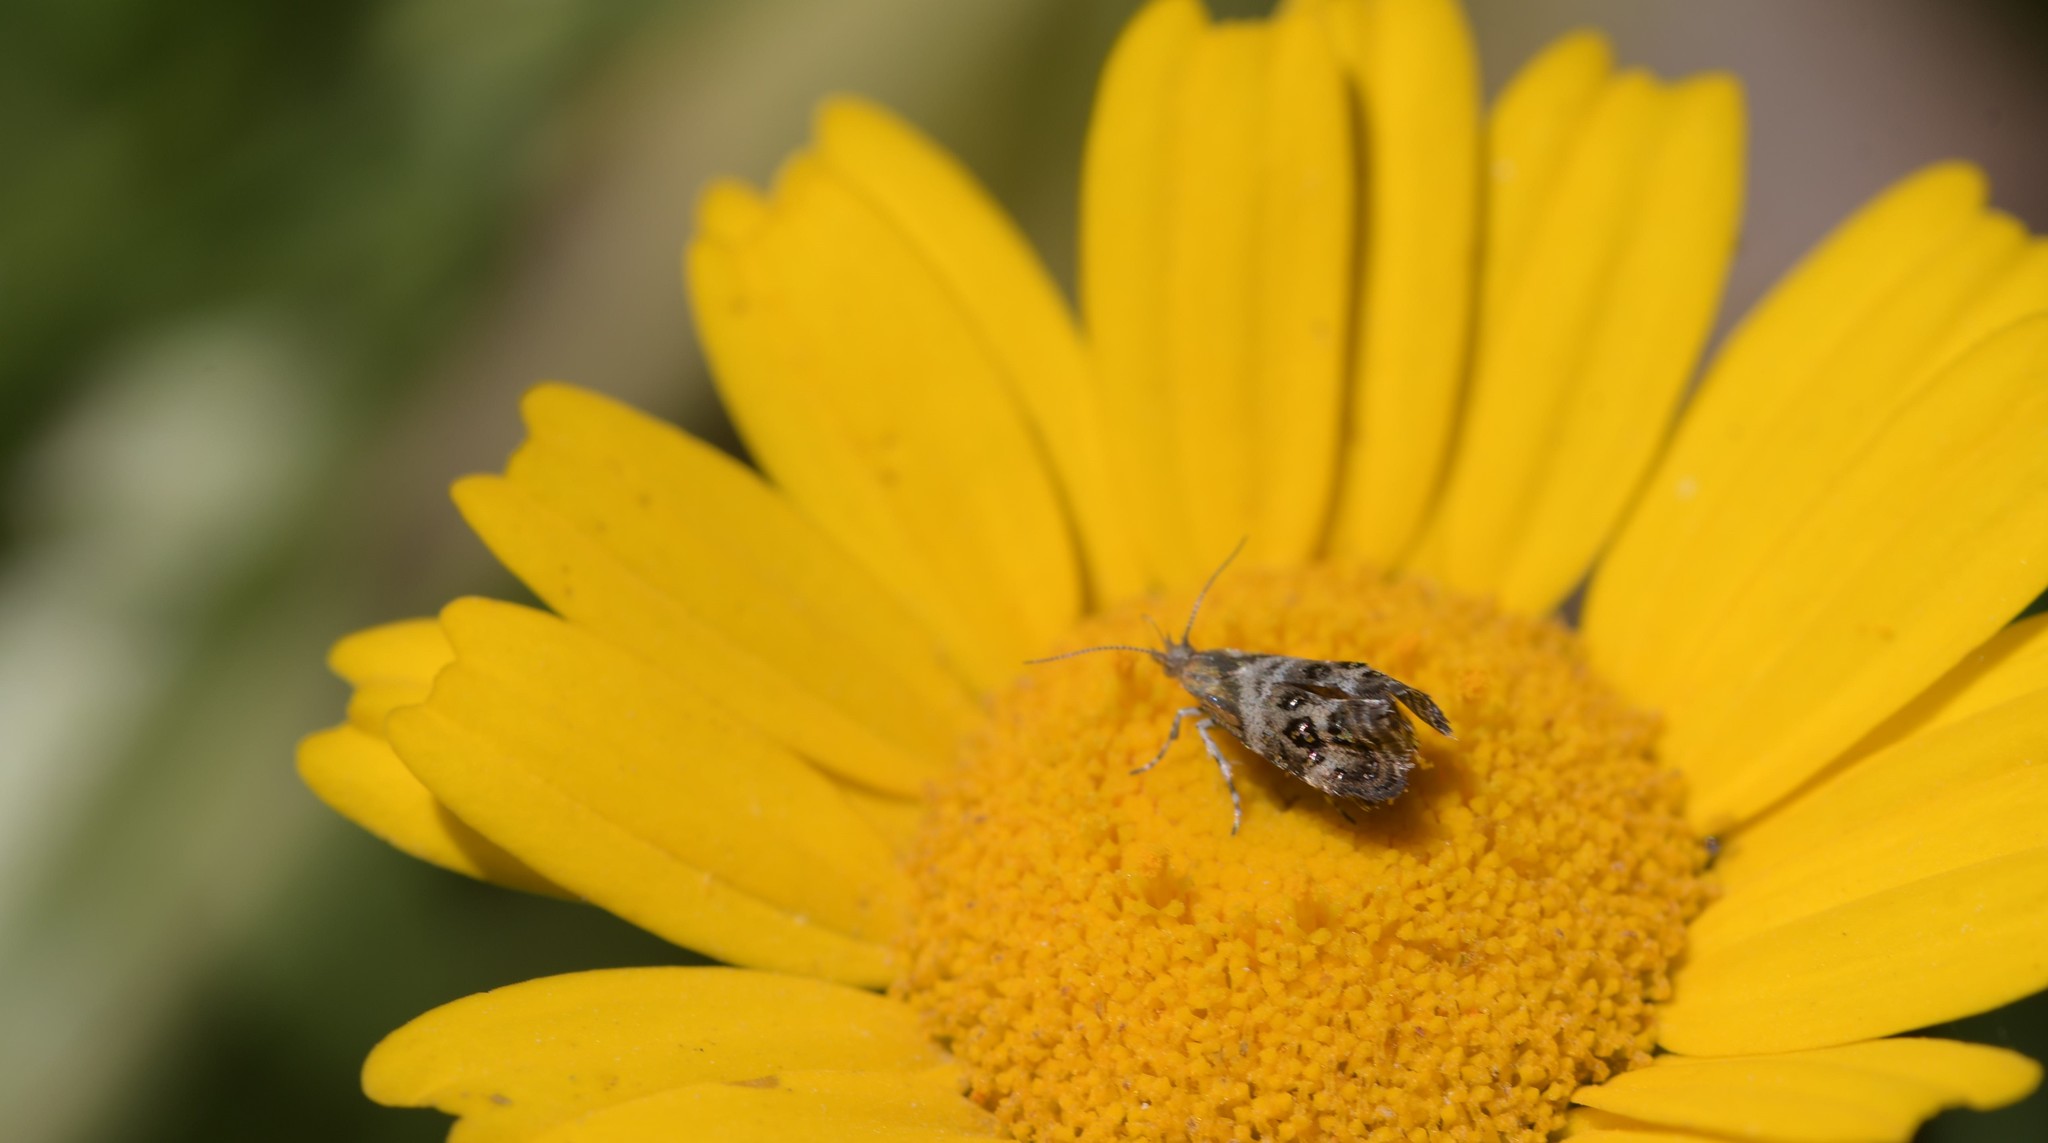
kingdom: Animalia
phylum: Arthropoda
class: Insecta
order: Lepidoptera
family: Choreutidae
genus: Tebenna
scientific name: Tebenna micalis
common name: Vagrant twitcher
